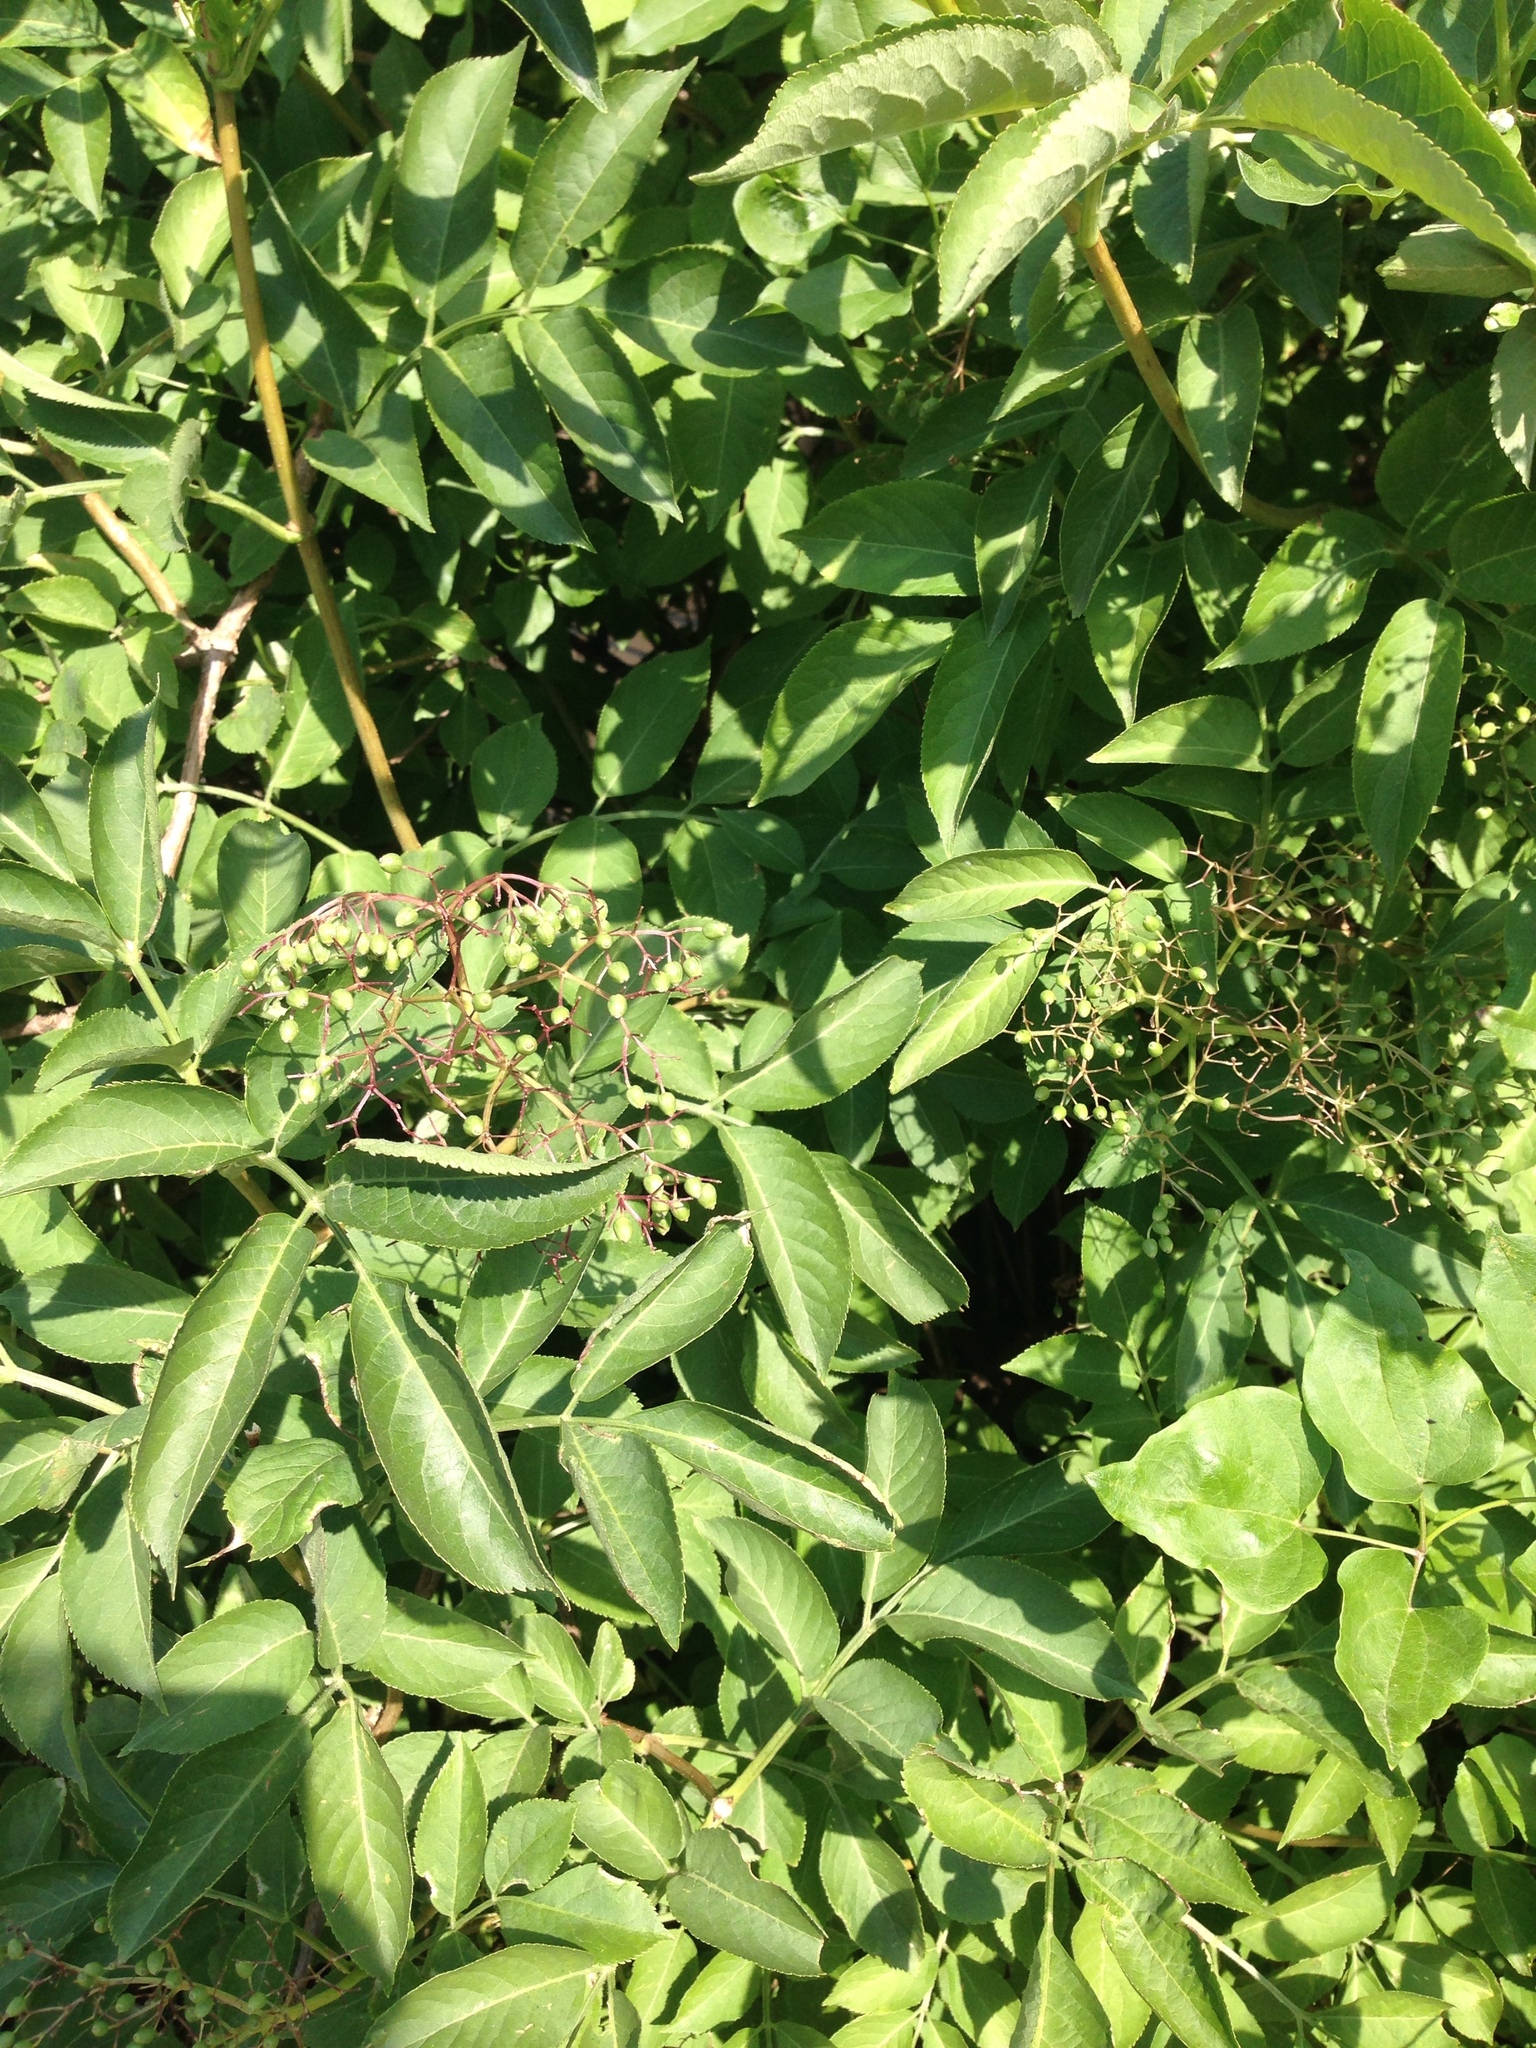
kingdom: Plantae
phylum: Tracheophyta
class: Magnoliopsida
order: Dipsacales
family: Viburnaceae
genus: Sambucus
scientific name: Sambucus nigra
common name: Elder
